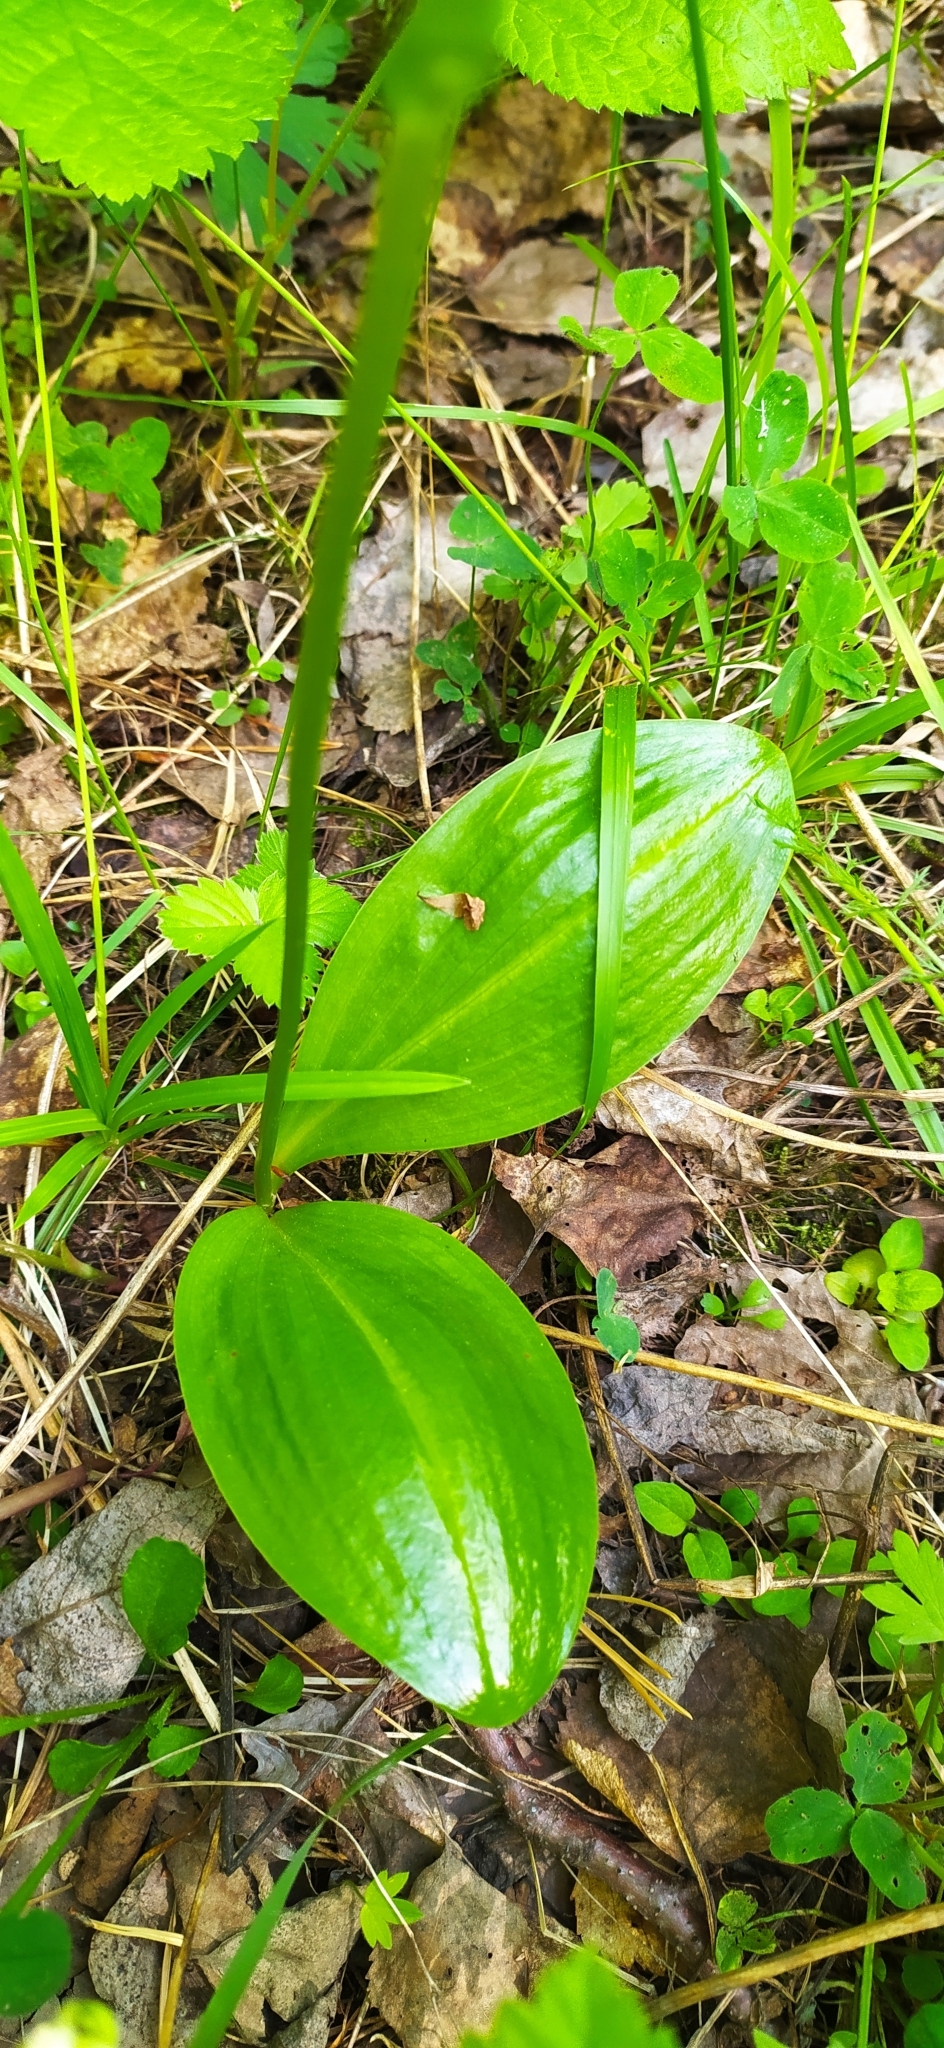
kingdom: Plantae
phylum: Tracheophyta
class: Liliopsida
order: Asparagales
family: Orchidaceae
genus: Platanthera
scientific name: Platanthera bifolia
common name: Lesser butterfly-orchid
